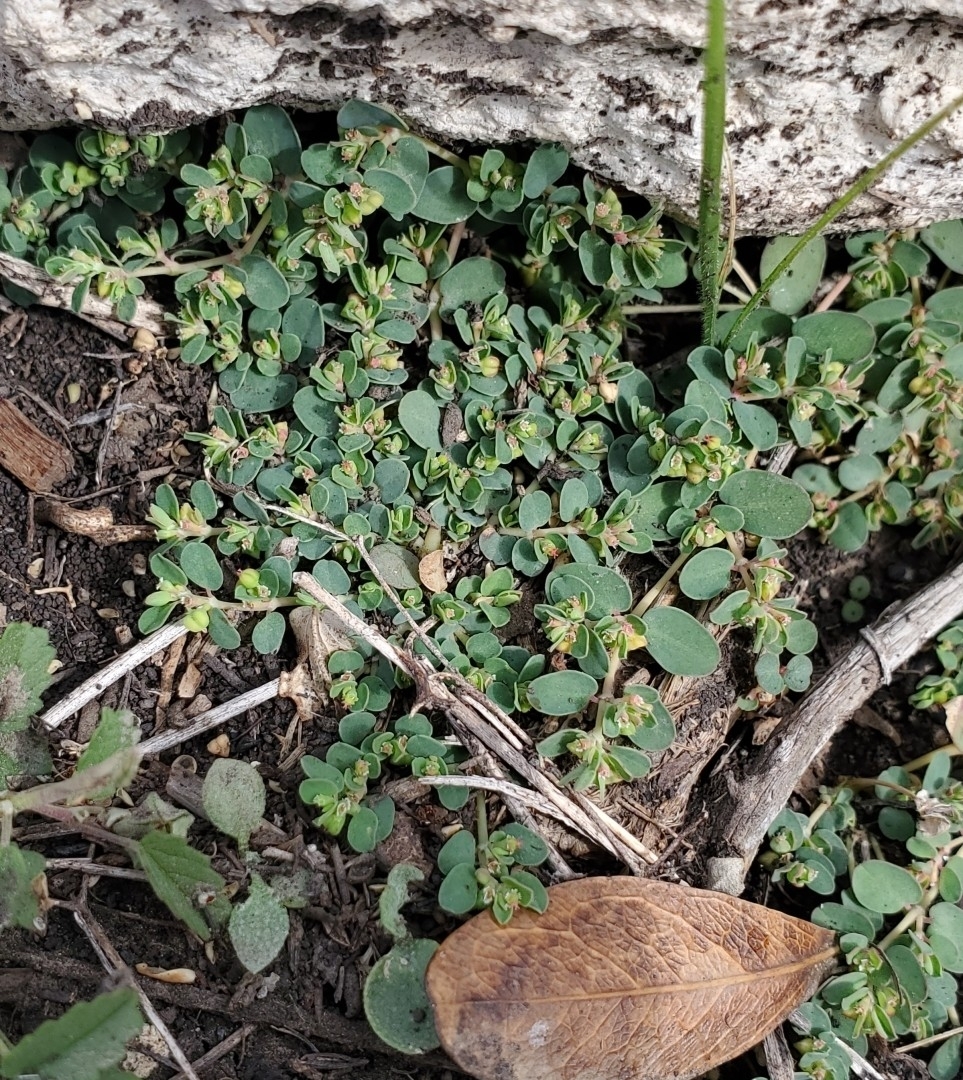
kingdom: Plantae
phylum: Tracheophyta
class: Magnoliopsida
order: Malpighiales
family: Euphorbiaceae
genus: Euphorbia
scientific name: Euphorbia serpens
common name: Matted sandmat
